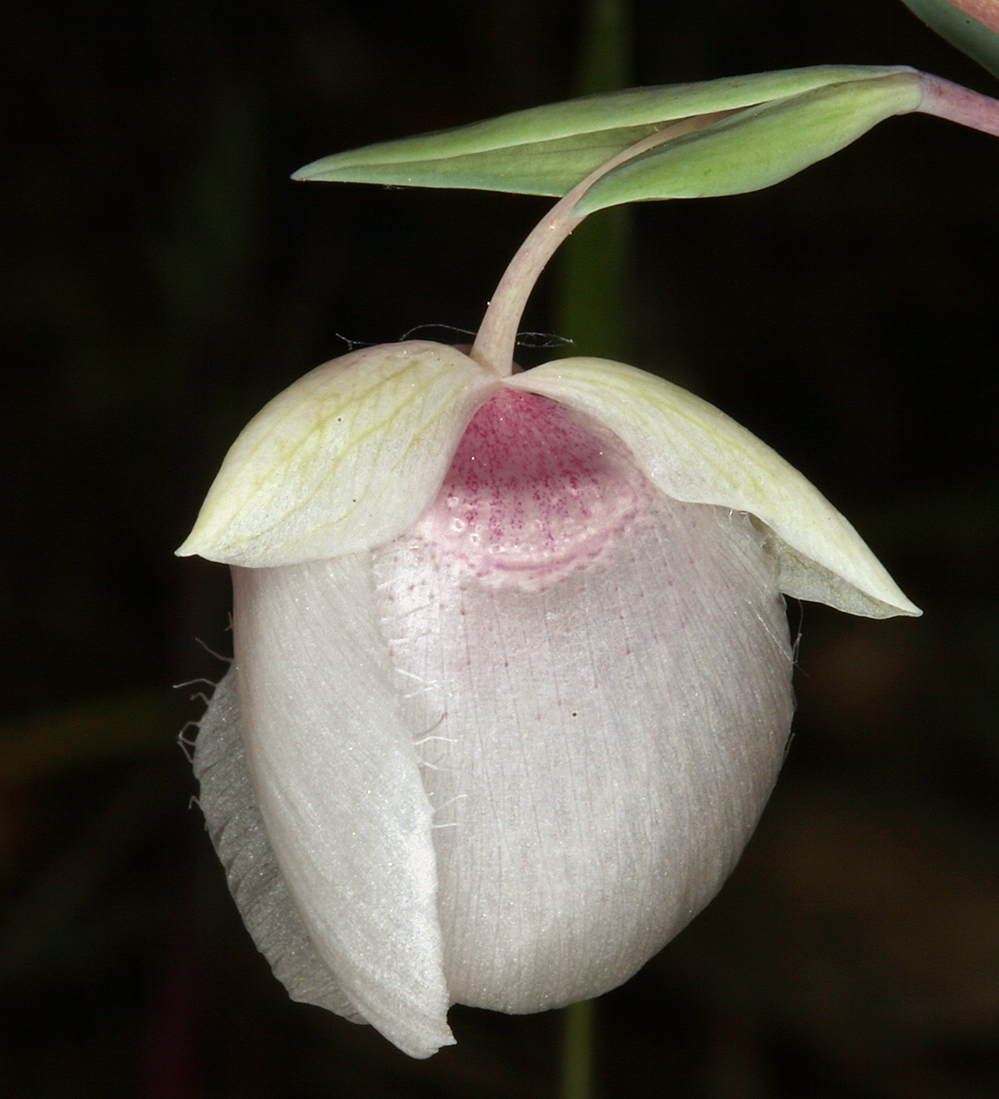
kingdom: Plantae
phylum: Tracheophyta
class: Liliopsida
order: Liliales
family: Liliaceae
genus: Calochortus
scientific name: Calochortus albus
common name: Fairy-lantern
